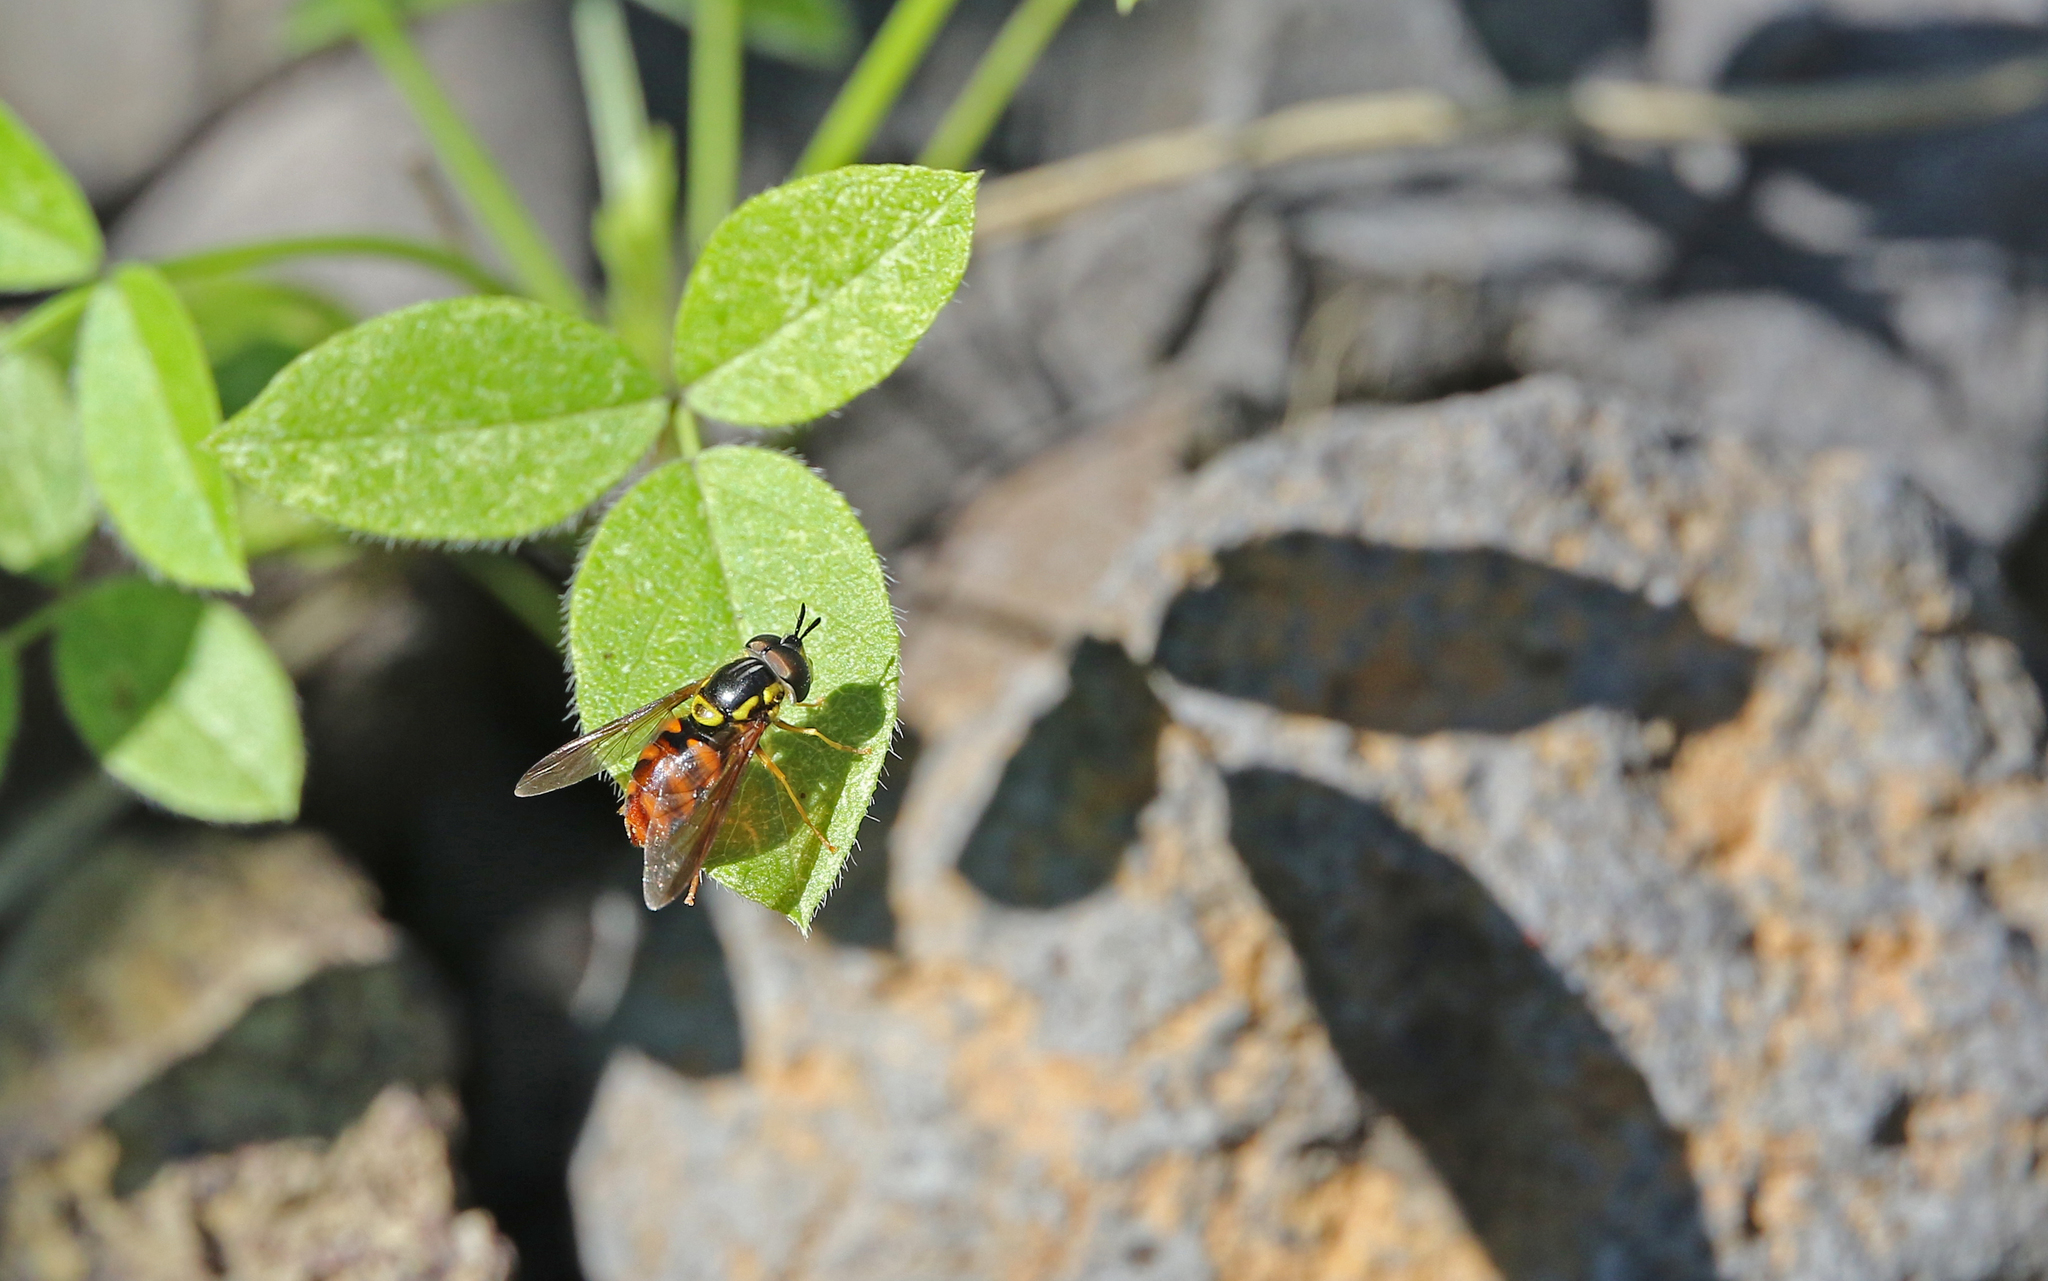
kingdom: Animalia
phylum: Arthropoda
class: Insecta
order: Diptera
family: Syrphidae
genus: Chrysotoxum
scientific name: Chrysotoxum triarcuatum
